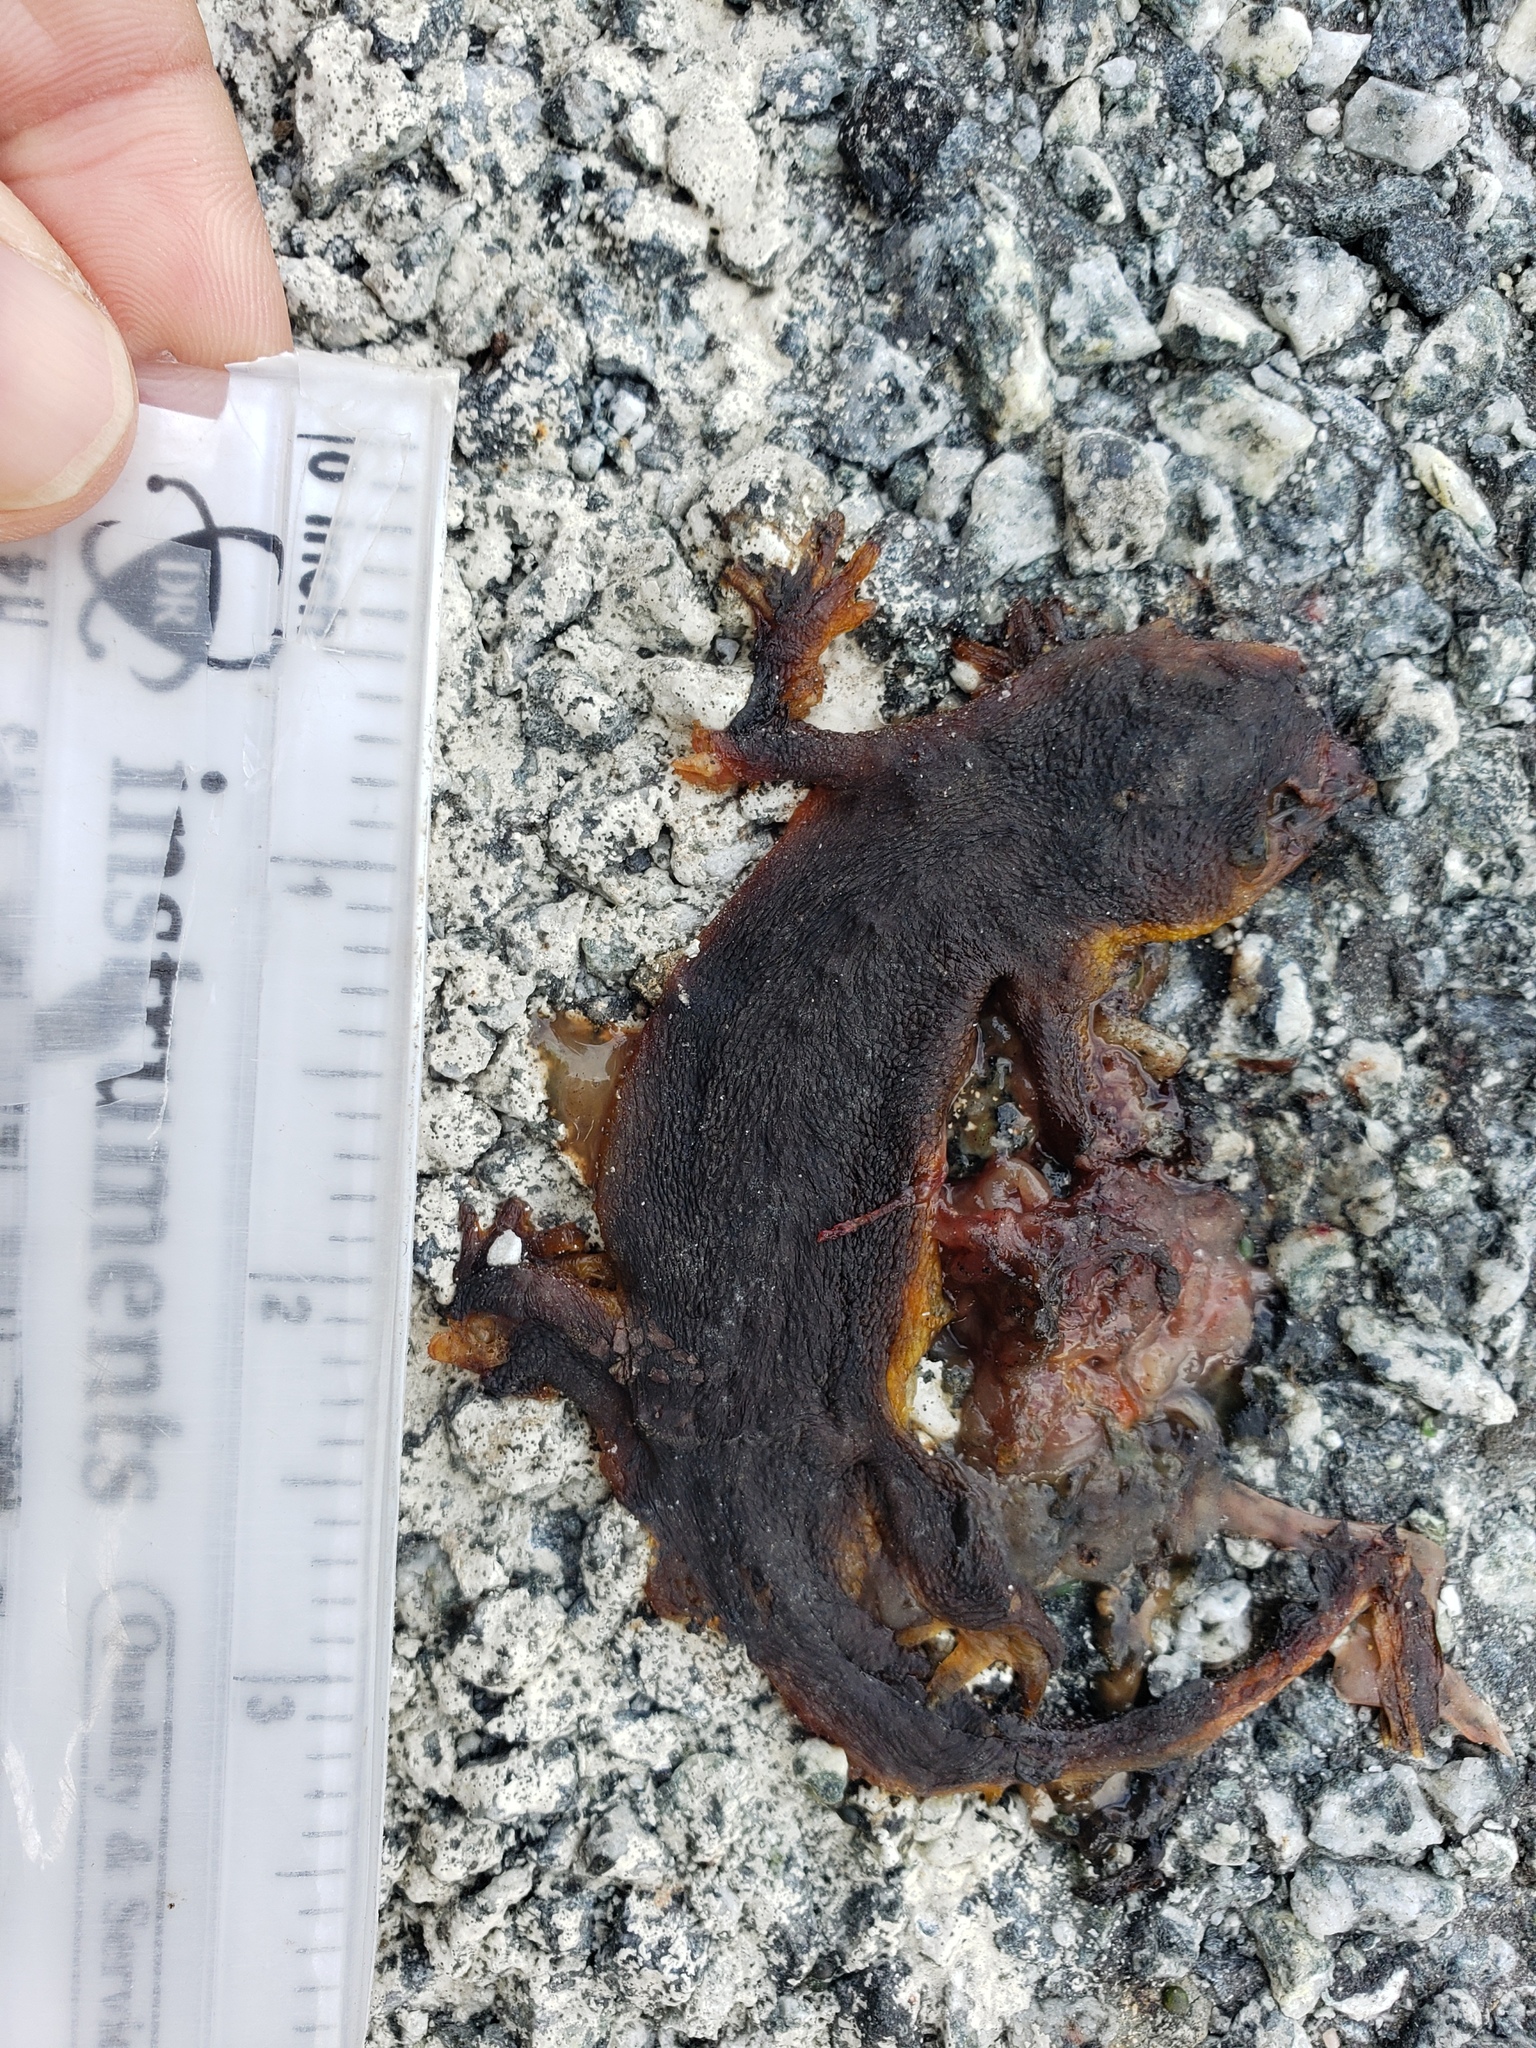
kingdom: Animalia
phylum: Chordata
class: Amphibia
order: Caudata
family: Salamandridae
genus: Taricha
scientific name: Taricha
